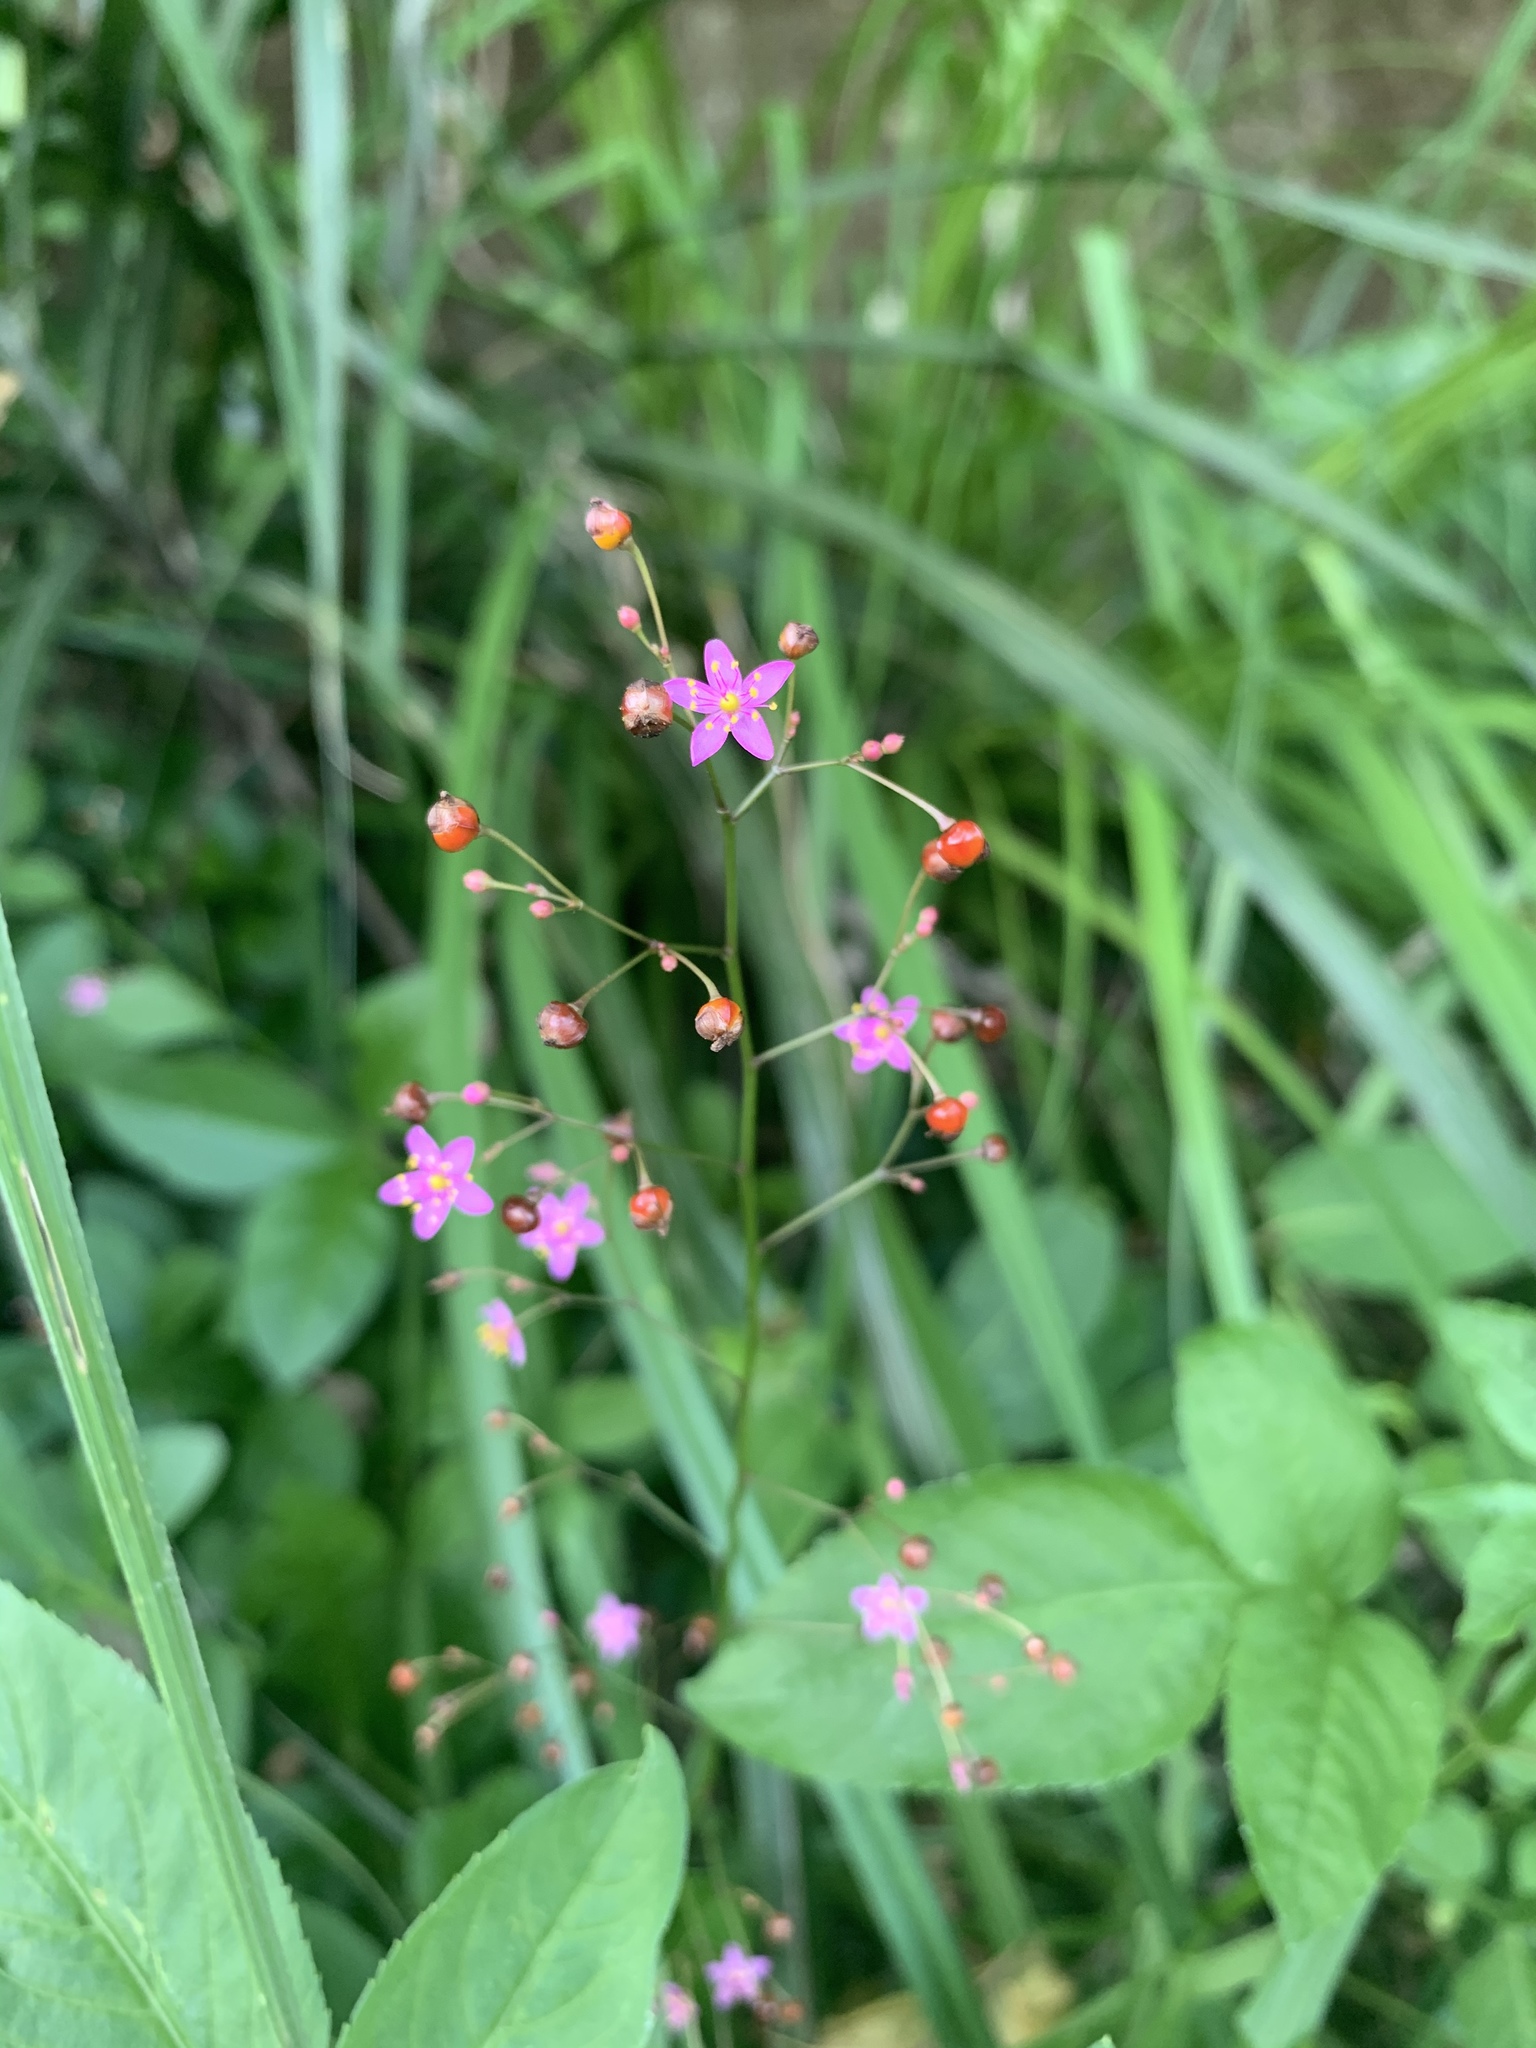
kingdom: Plantae
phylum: Tracheophyta
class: Magnoliopsida
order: Caryophyllales
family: Talinaceae
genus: Talinum
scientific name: Talinum paniculatum
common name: Jewels of opar
